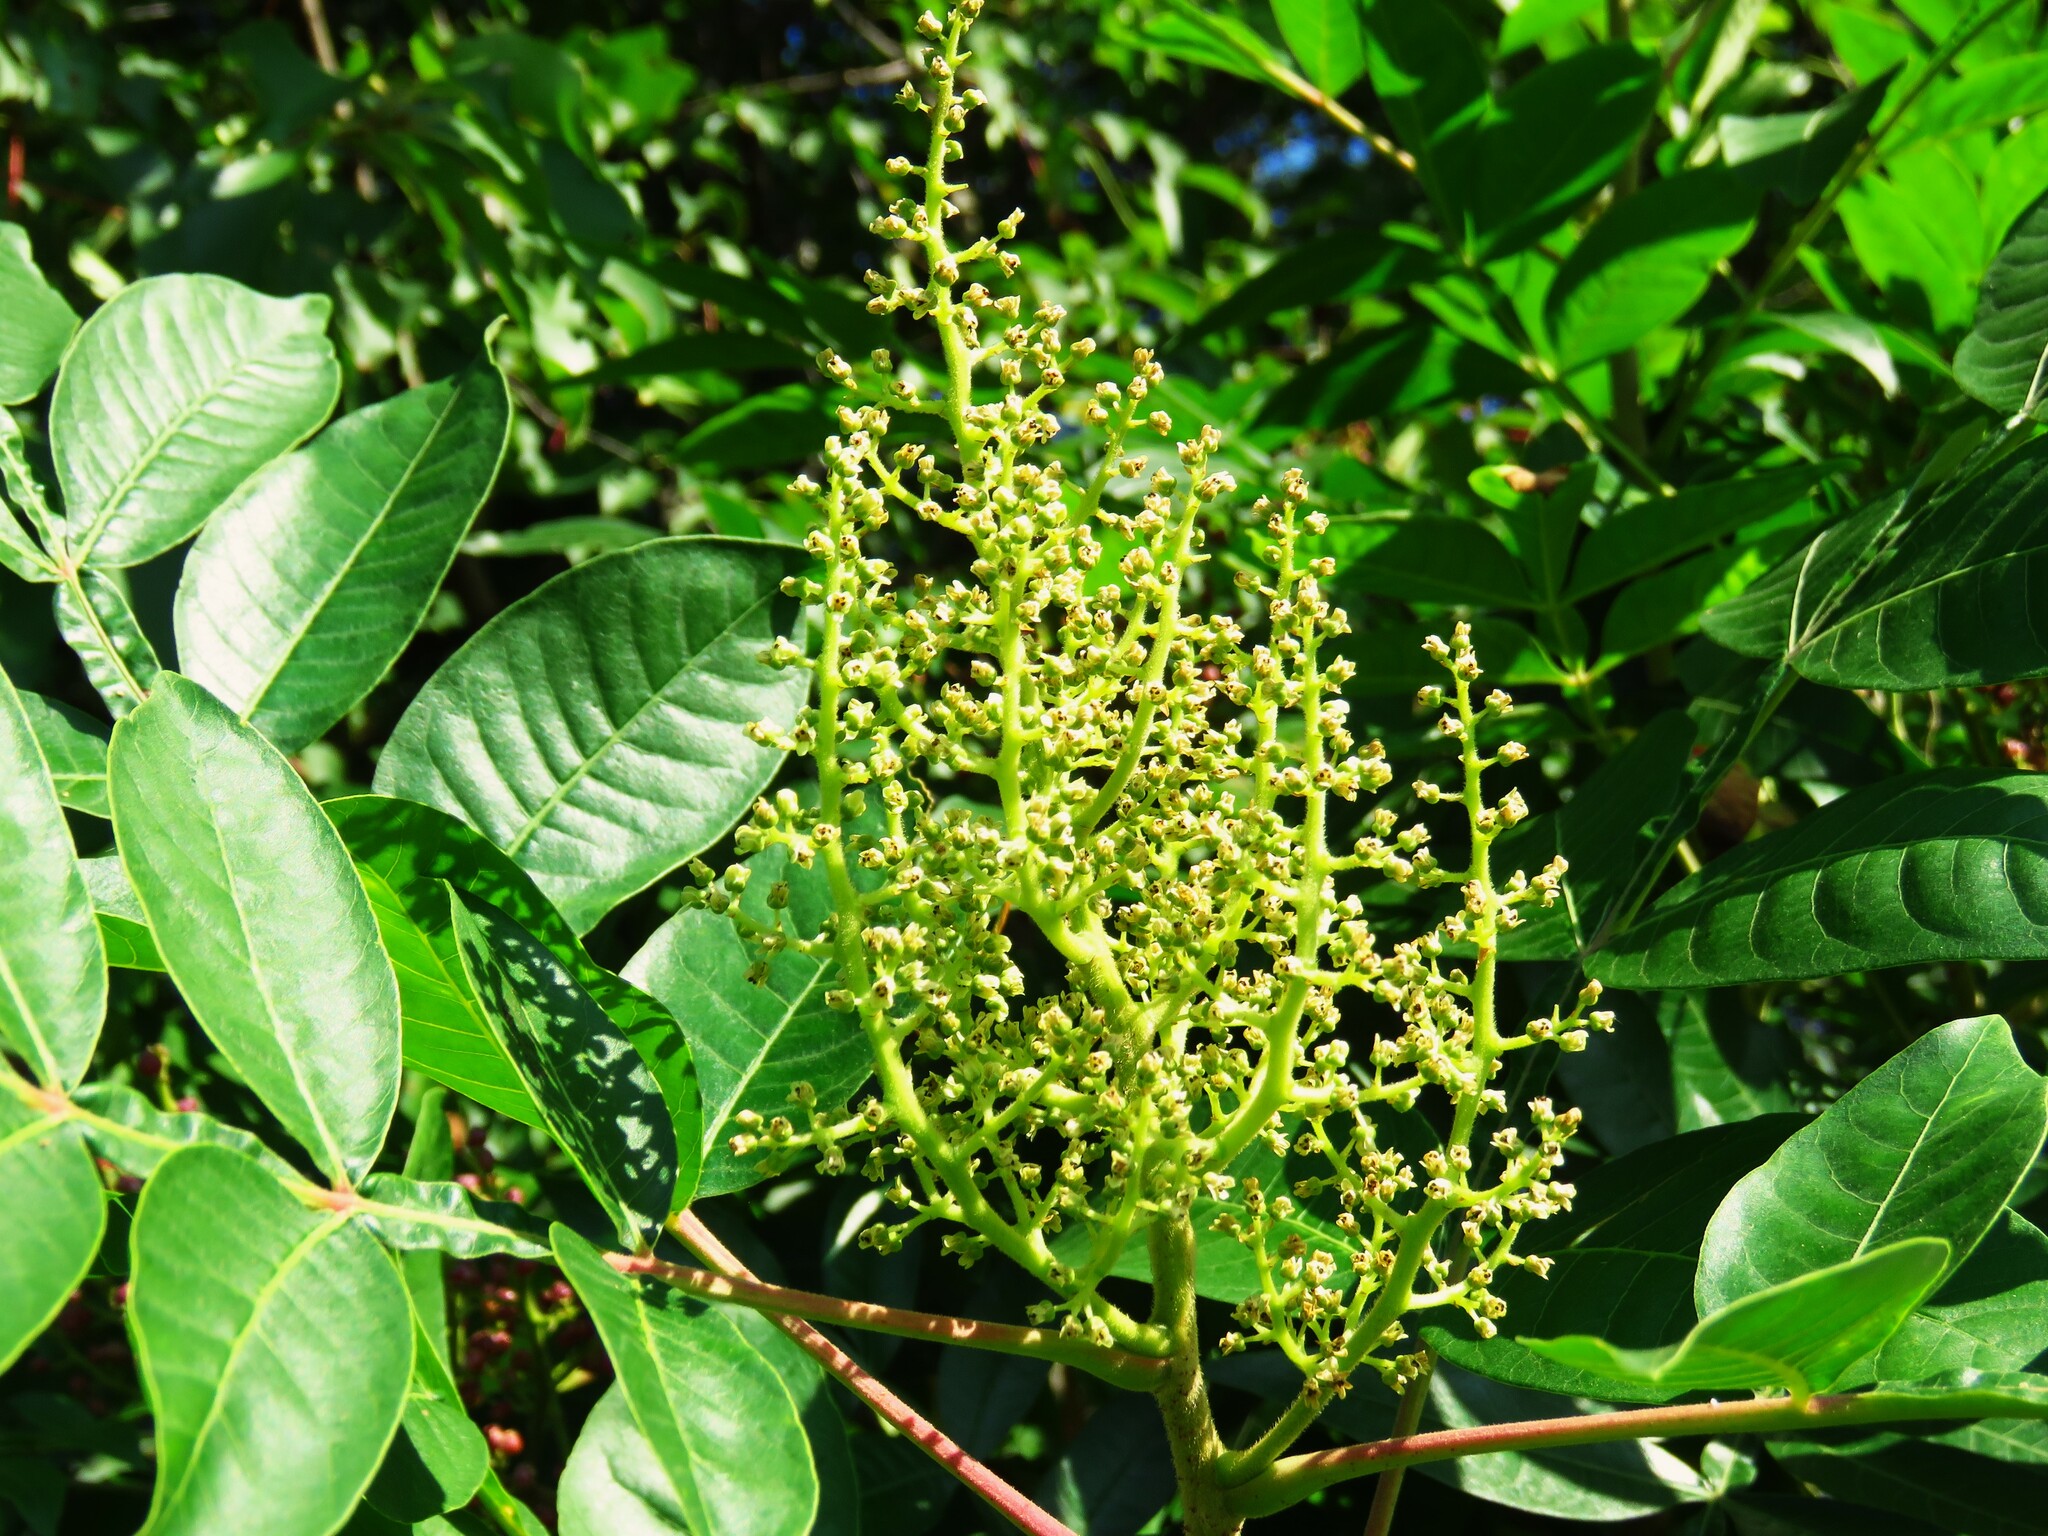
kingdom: Plantae
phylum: Tracheophyta
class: Magnoliopsida
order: Sapindales
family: Anacardiaceae
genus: Rhus
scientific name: Rhus copallina
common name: Shining sumac
